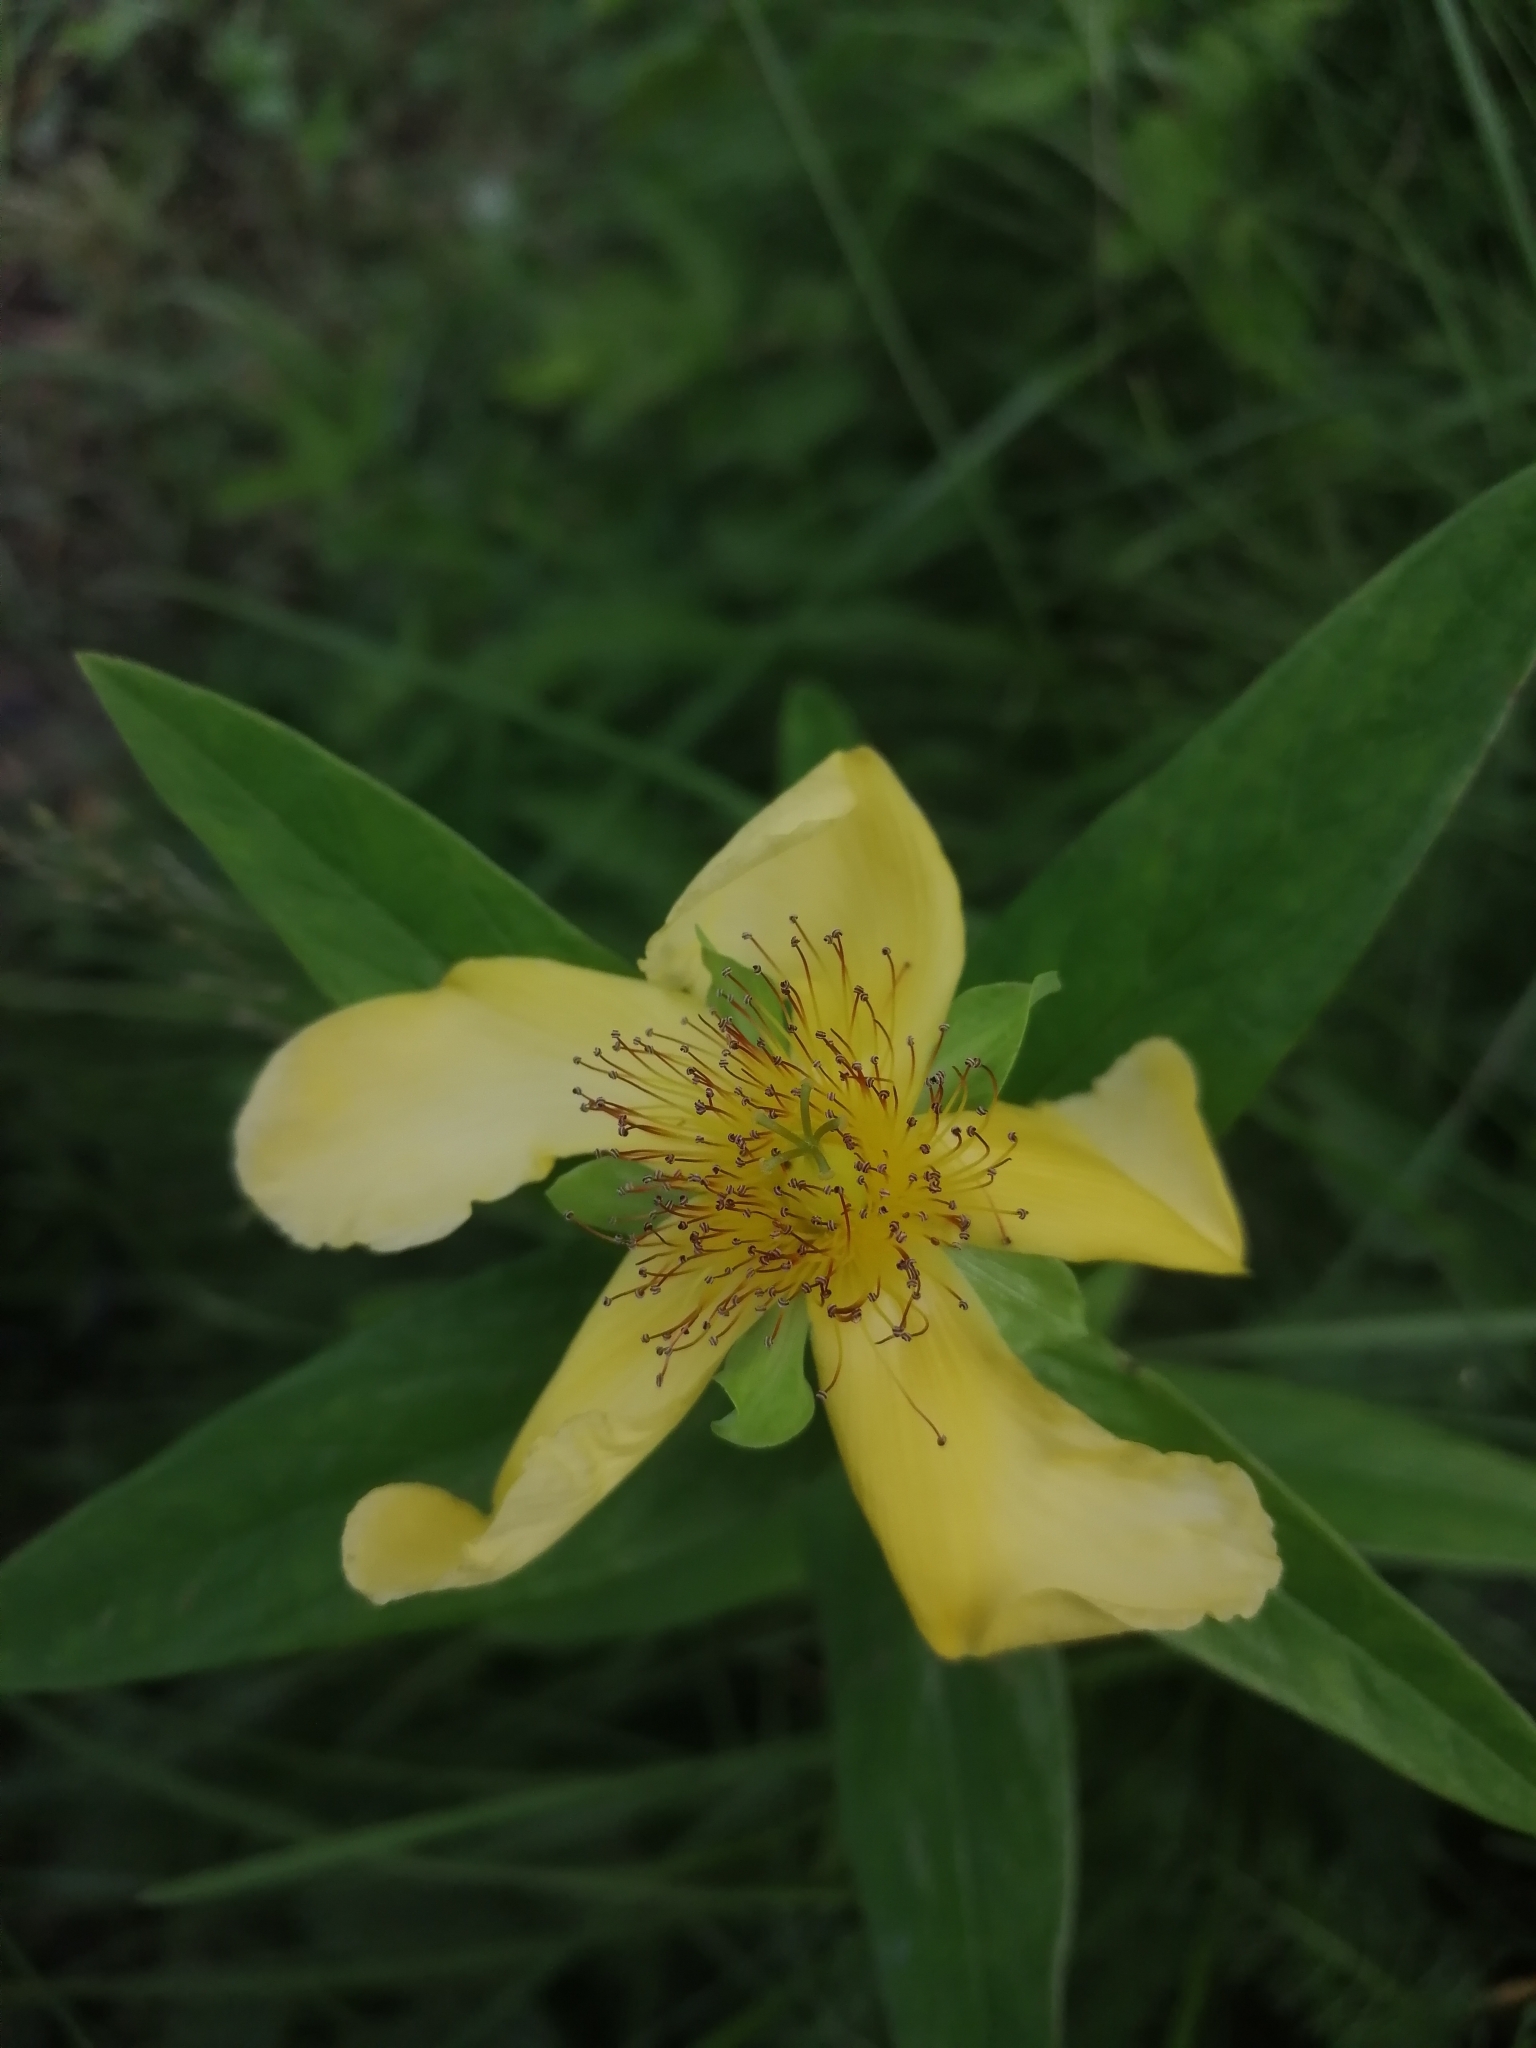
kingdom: Plantae
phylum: Tracheophyta
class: Magnoliopsida
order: Malpighiales
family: Hypericaceae
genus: Hypericum
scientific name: Hypericum ascyron
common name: Giant st. john's-wort
